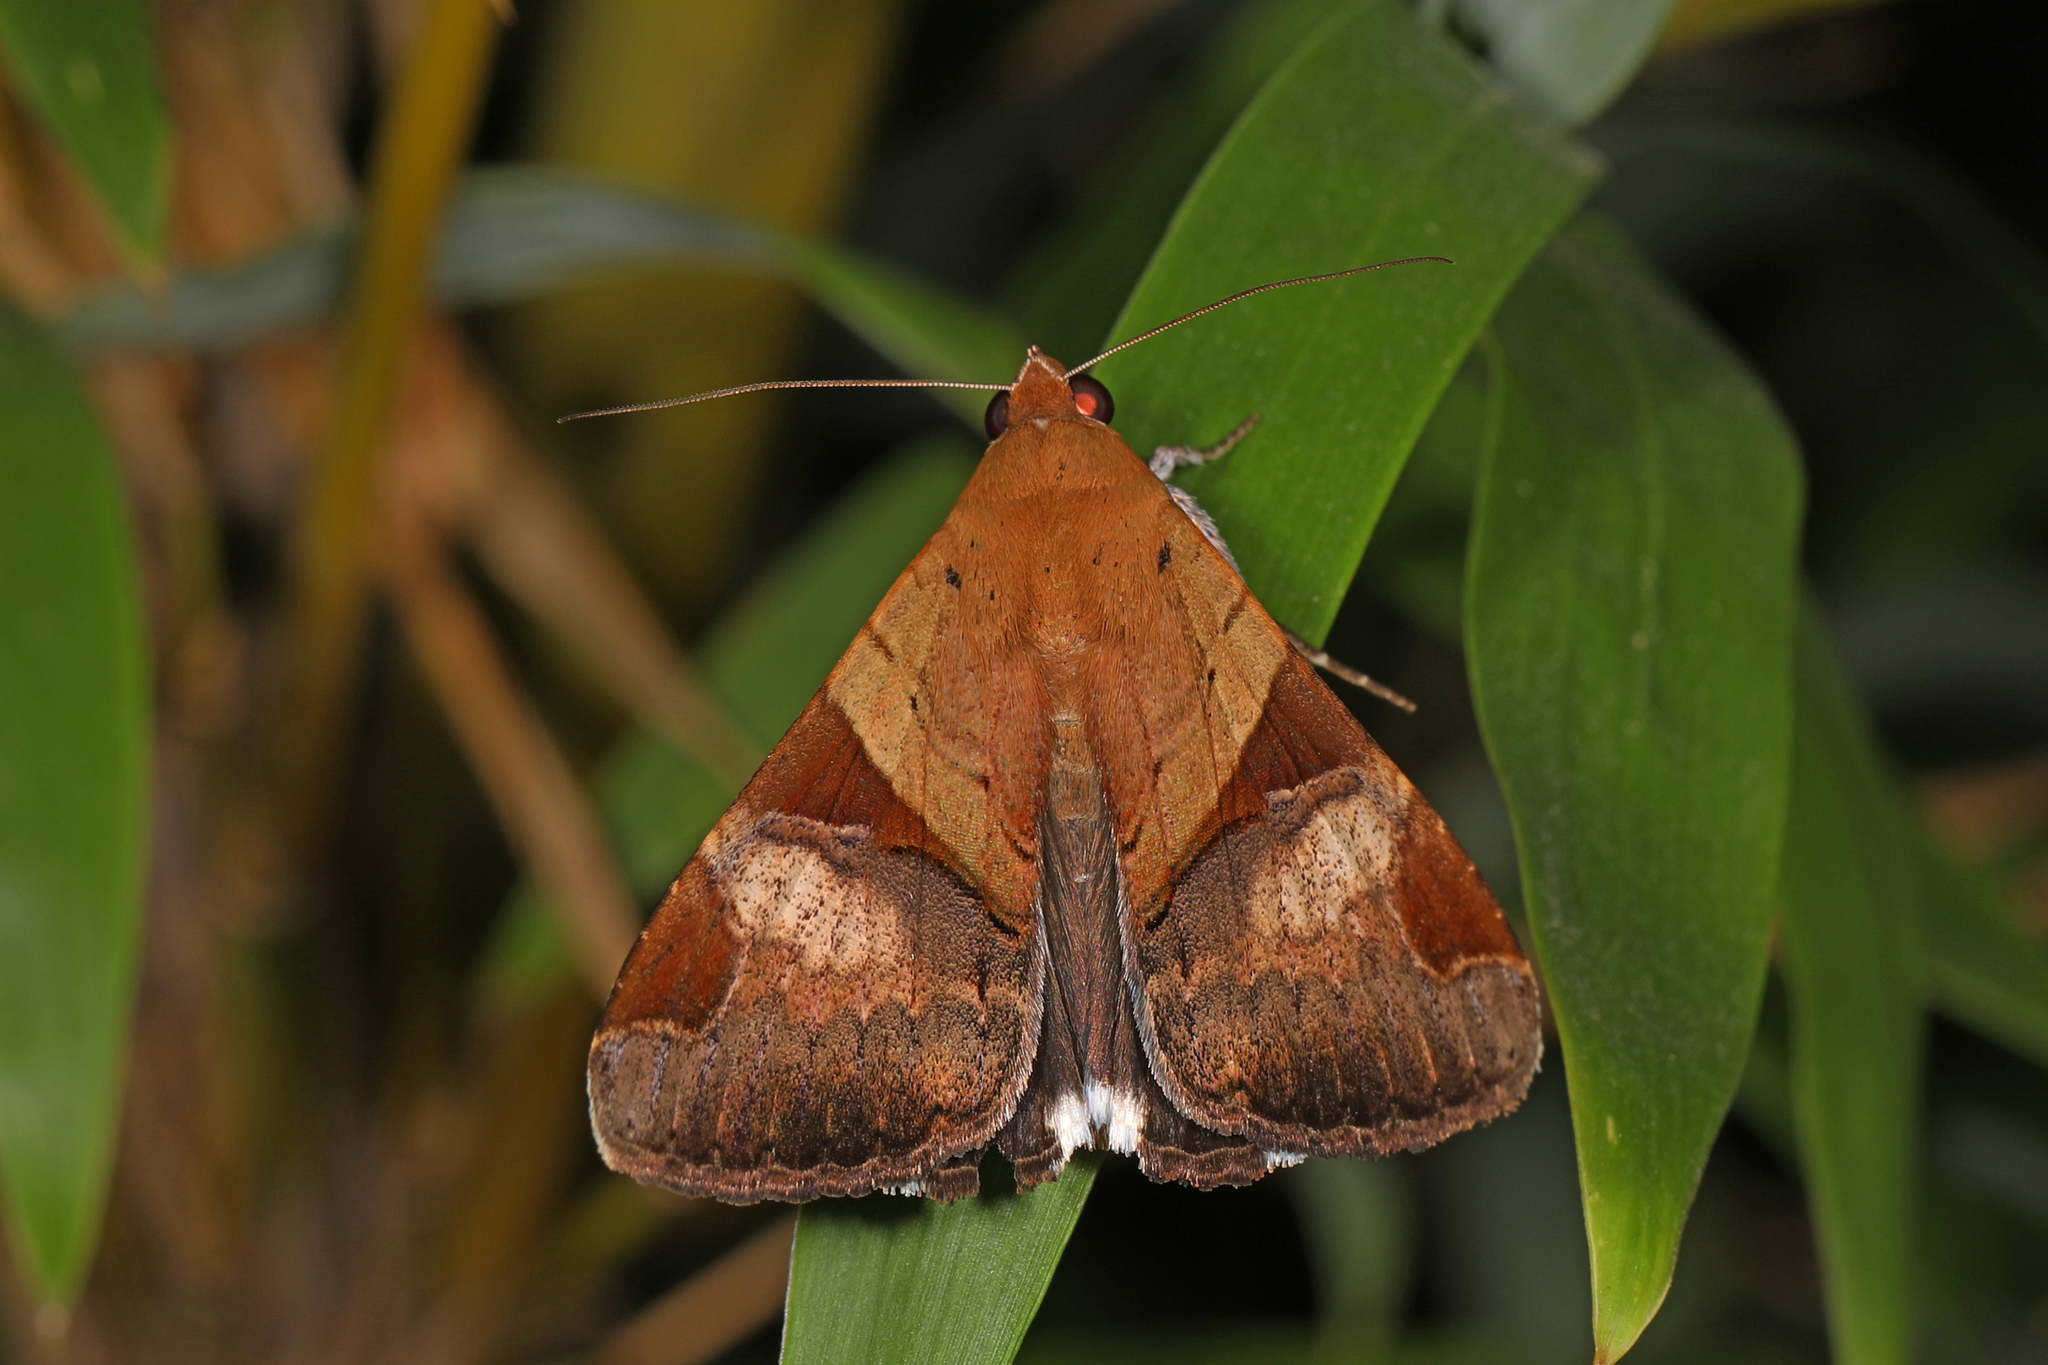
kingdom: Animalia
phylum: Arthropoda
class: Insecta
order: Lepidoptera
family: Erebidae
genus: Melipotis
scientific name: Melipotis fasciolaris
